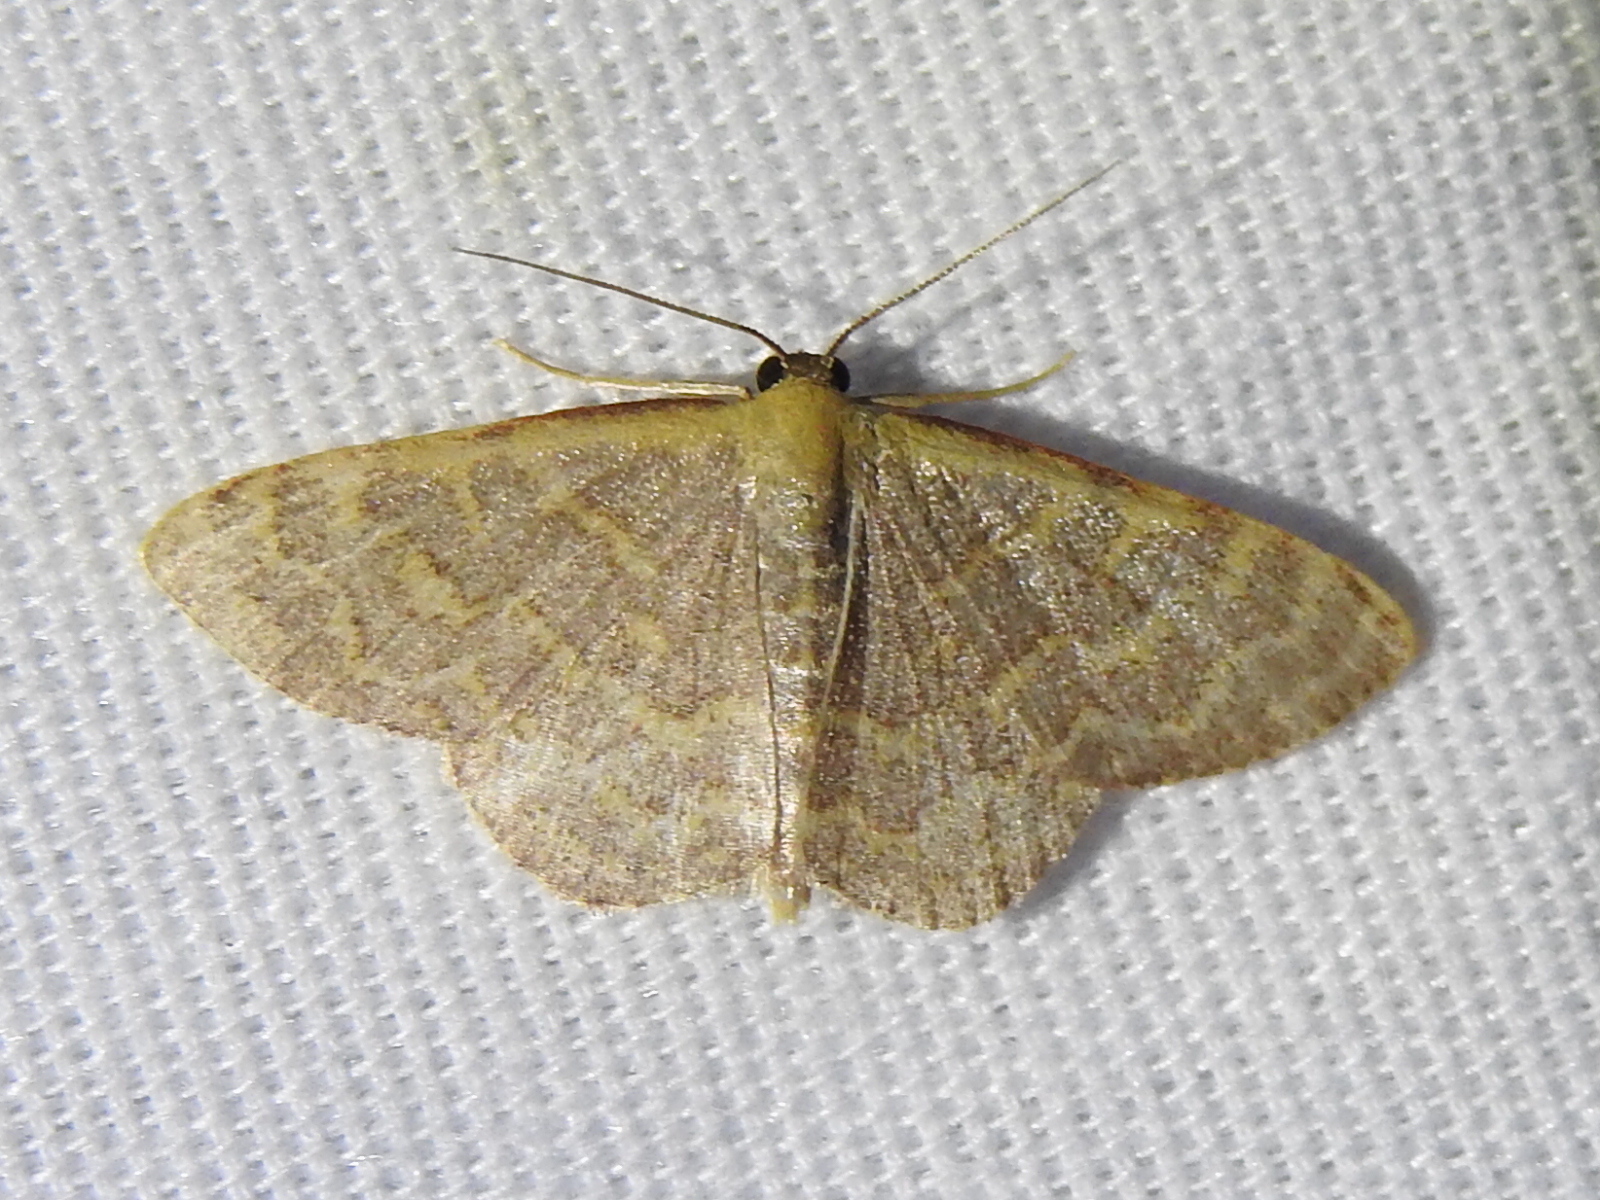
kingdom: Animalia
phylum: Arthropoda
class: Insecta
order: Lepidoptera
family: Geometridae
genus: Leptostales
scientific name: Leptostales pannaria
